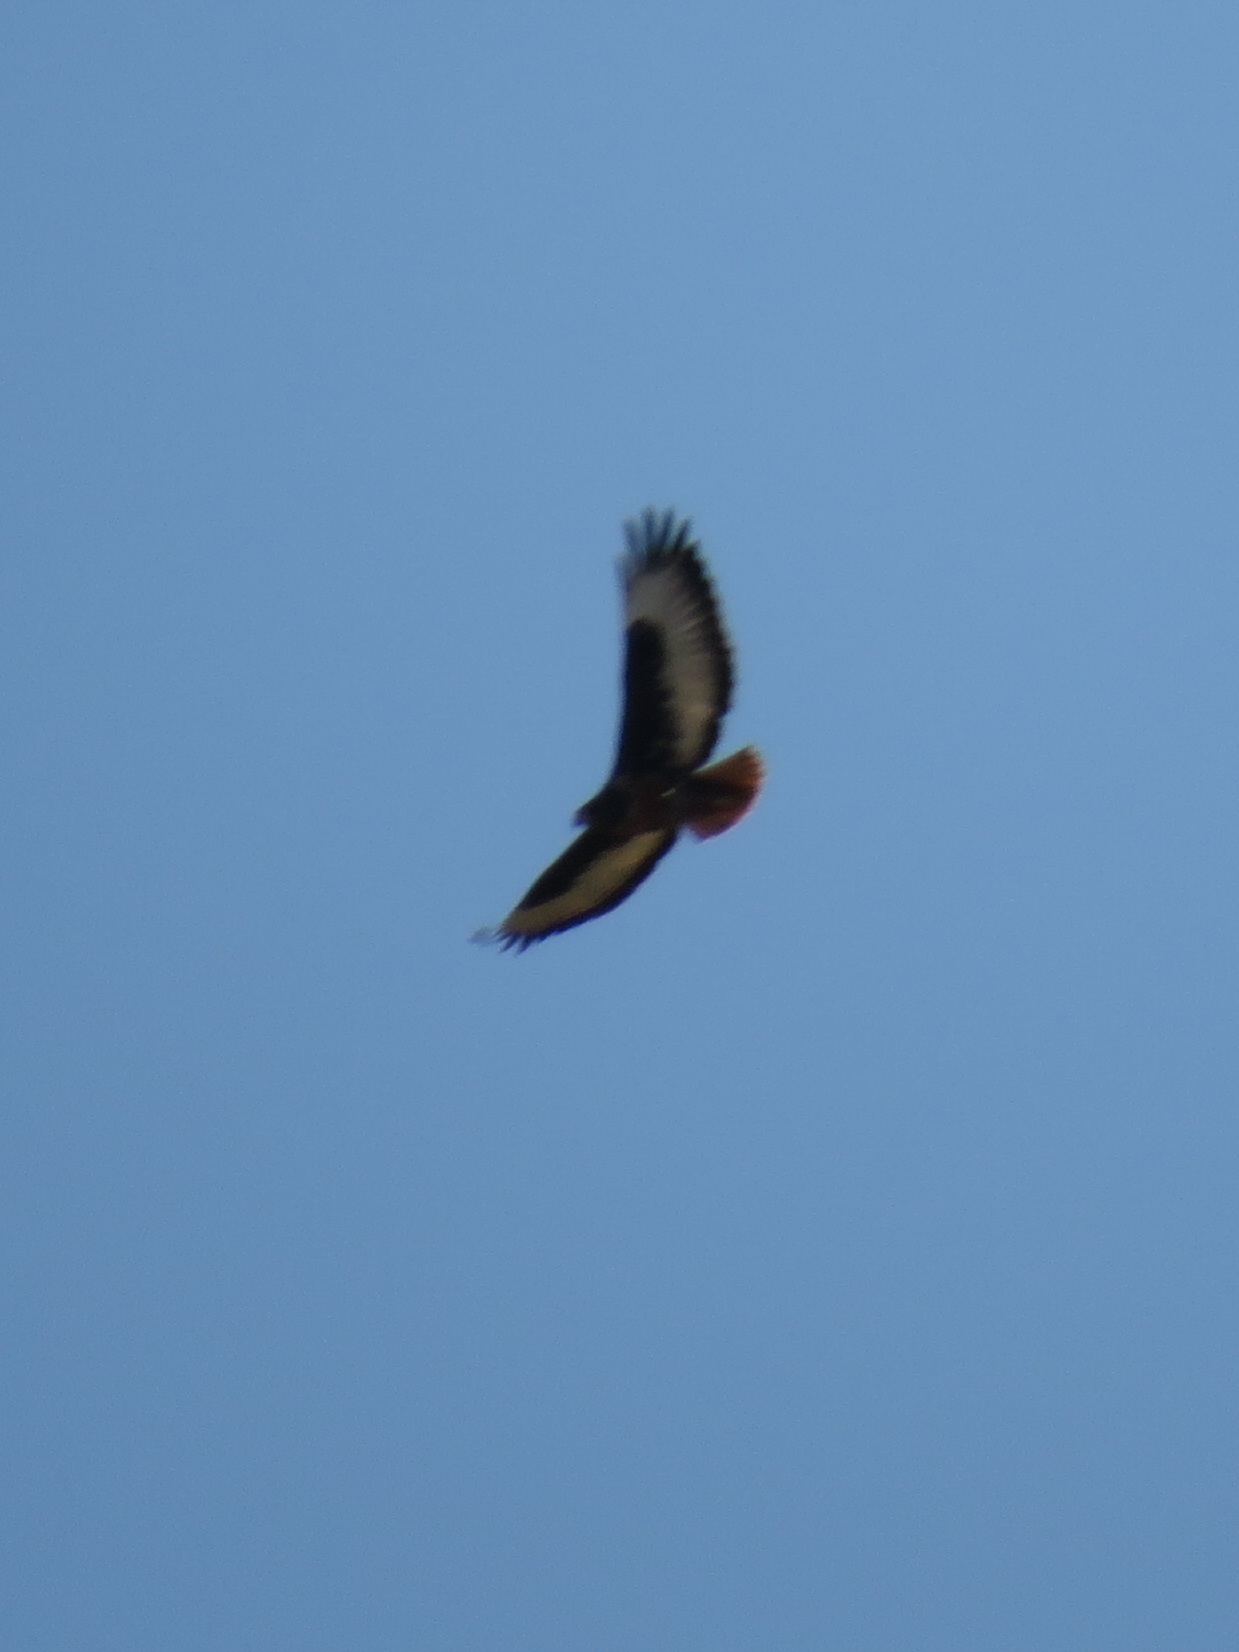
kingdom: Animalia
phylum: Chordata
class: Aves
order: Accipitriformes
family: Accipitridae
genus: Buteo
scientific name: Buteo rufofuscus
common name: Jackal buzzard
